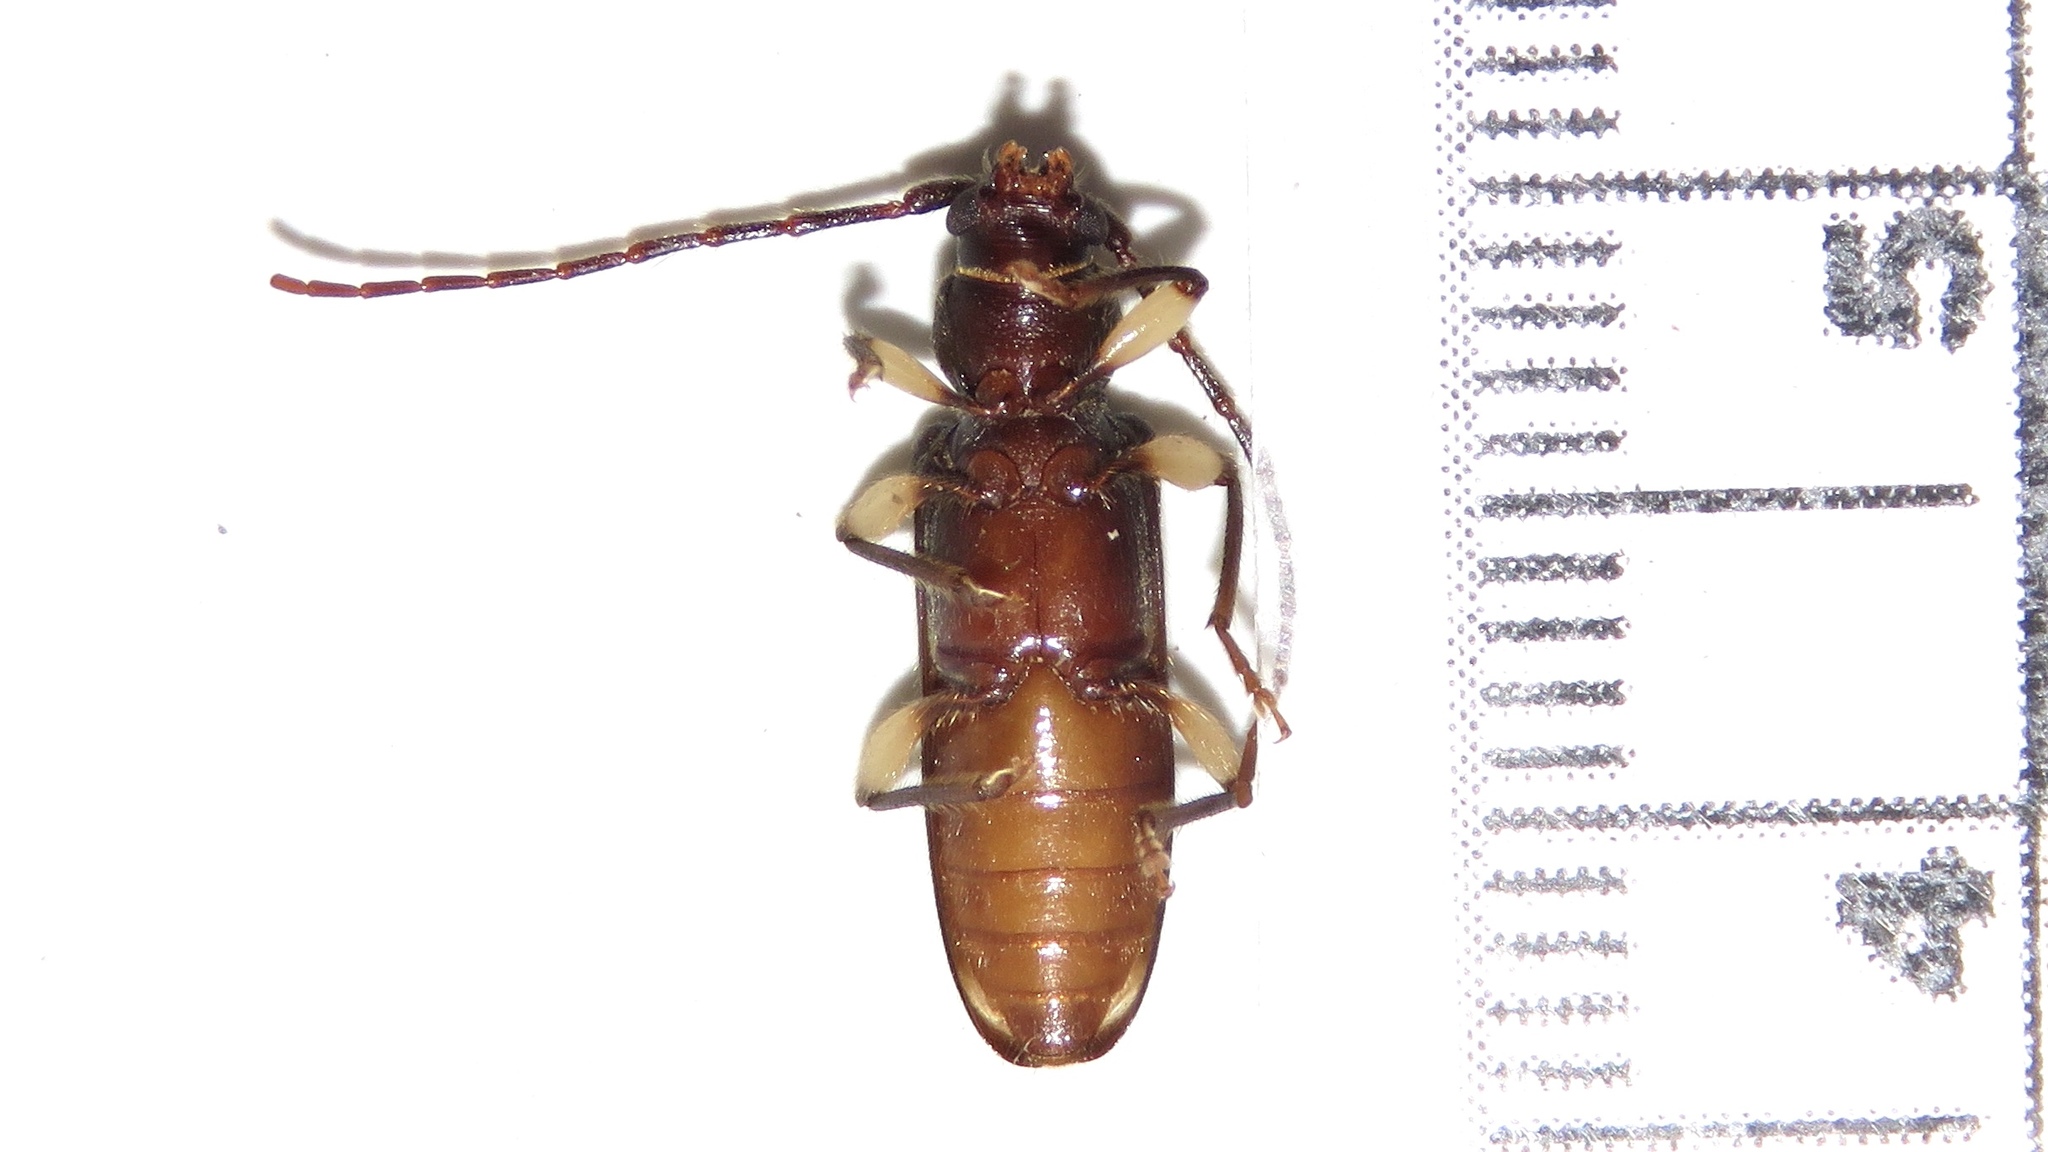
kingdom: Animalia
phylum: Arthropoda
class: Insecta
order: Coleoptera
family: Cerambycidae
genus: Tylonotus
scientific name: Tylonotus bimaculatus
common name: Ash and privet borer
